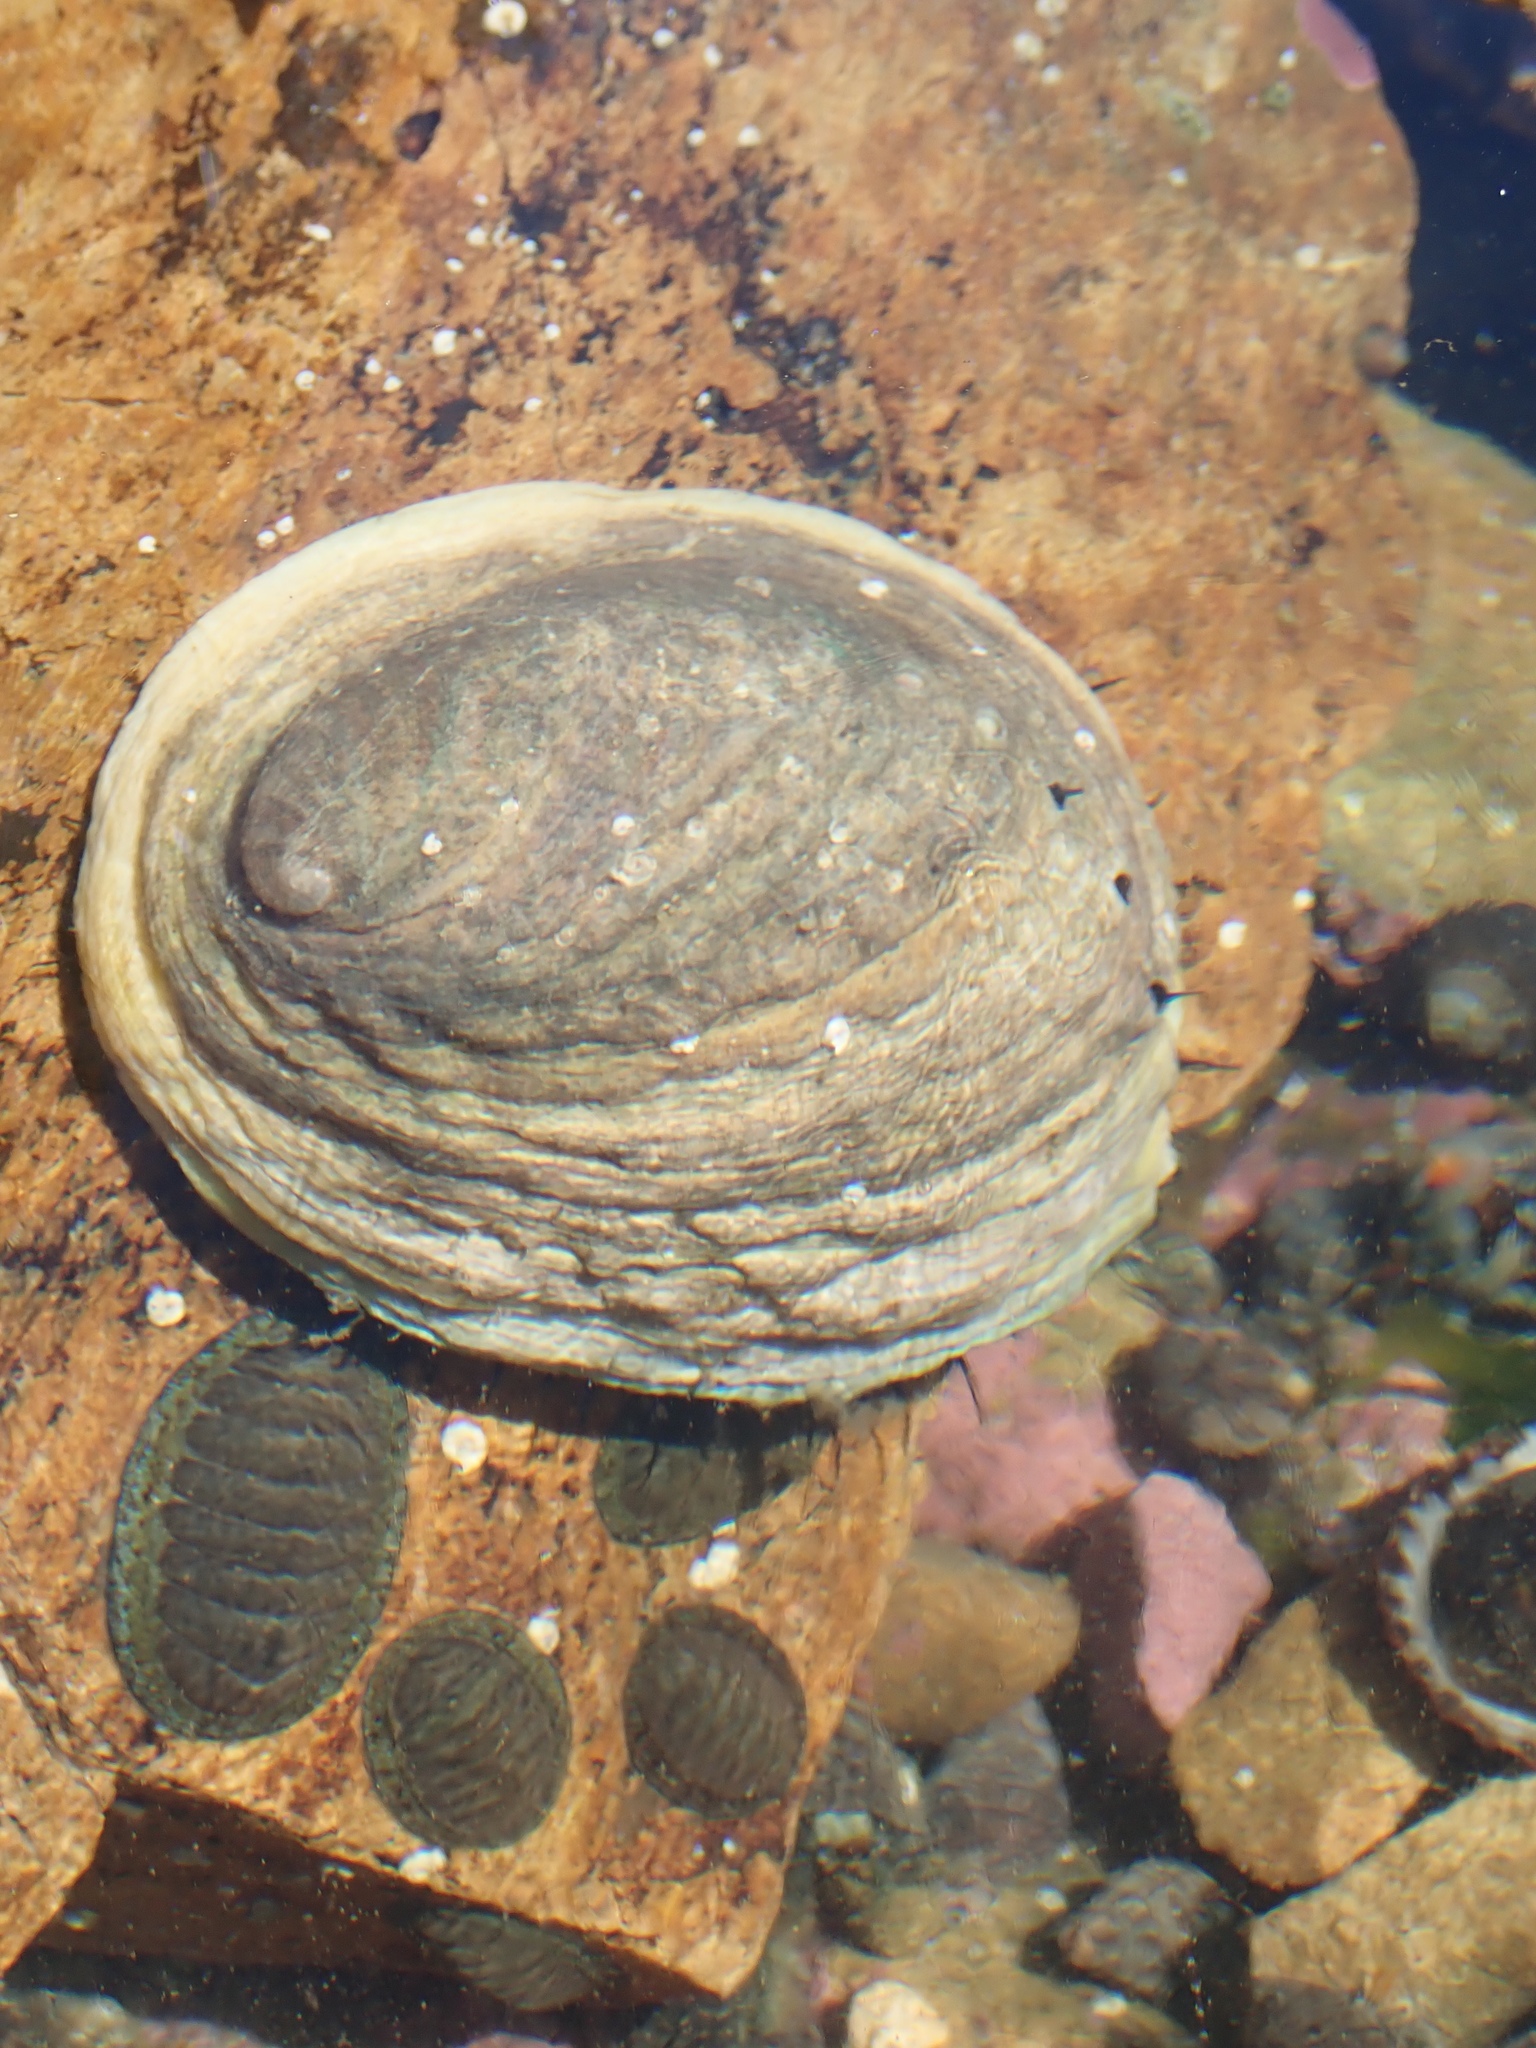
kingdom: Animalia
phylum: Mollusca
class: Gastropoda
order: Lepetellida
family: Haliotidae
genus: Haliotis
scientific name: Haliotis iris
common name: Abalone
